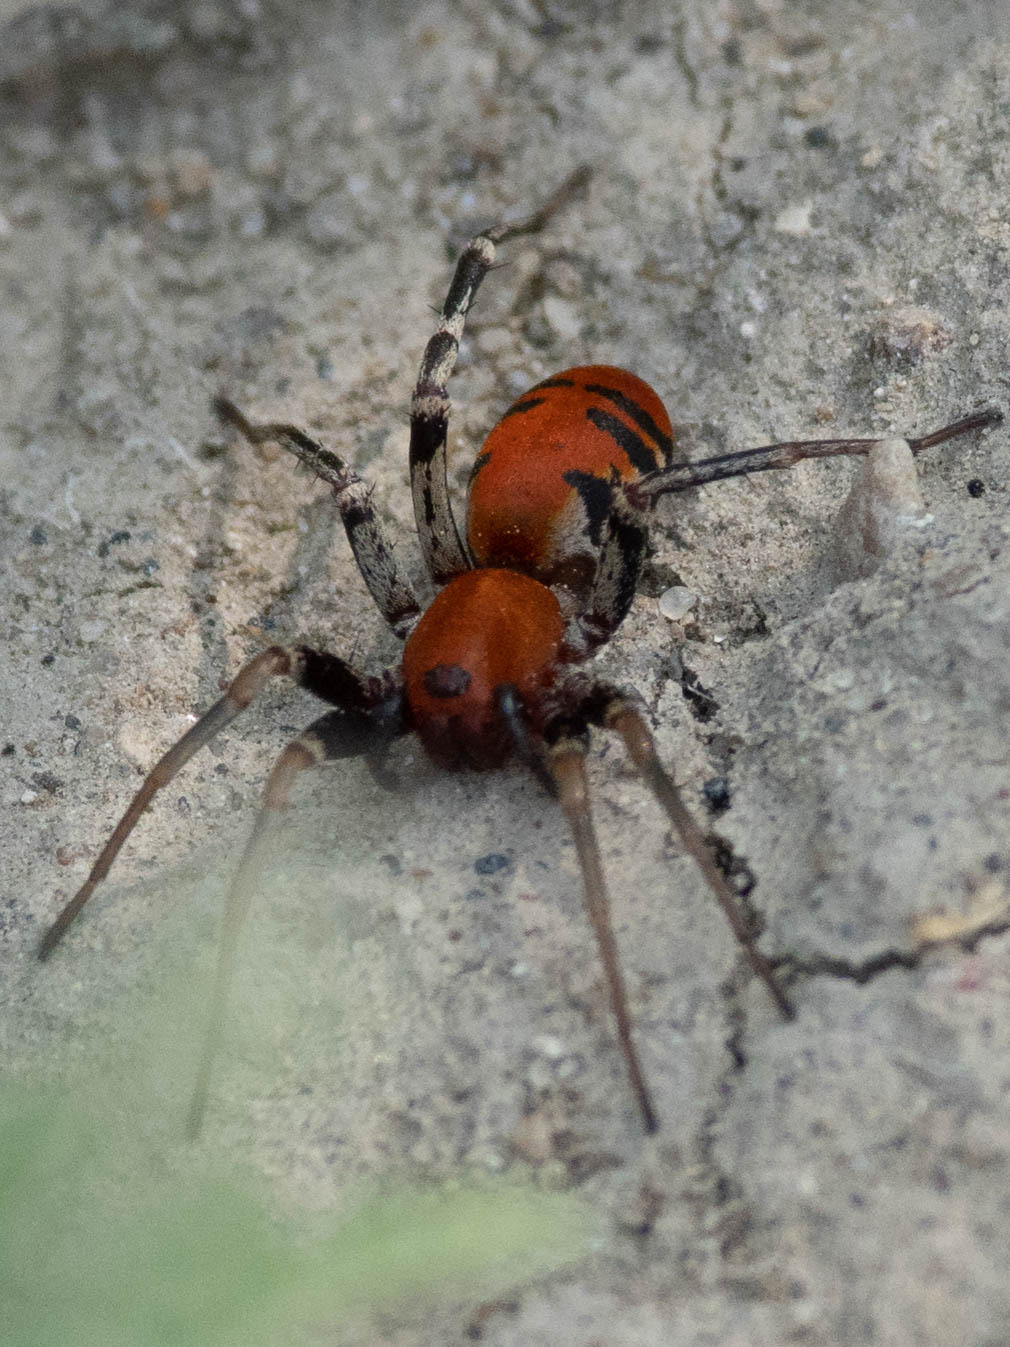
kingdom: Animalia
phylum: Arthropoda
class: Arachnida
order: Araneae
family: Corinnidae
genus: Castianeira
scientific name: Castianeira alteranda
